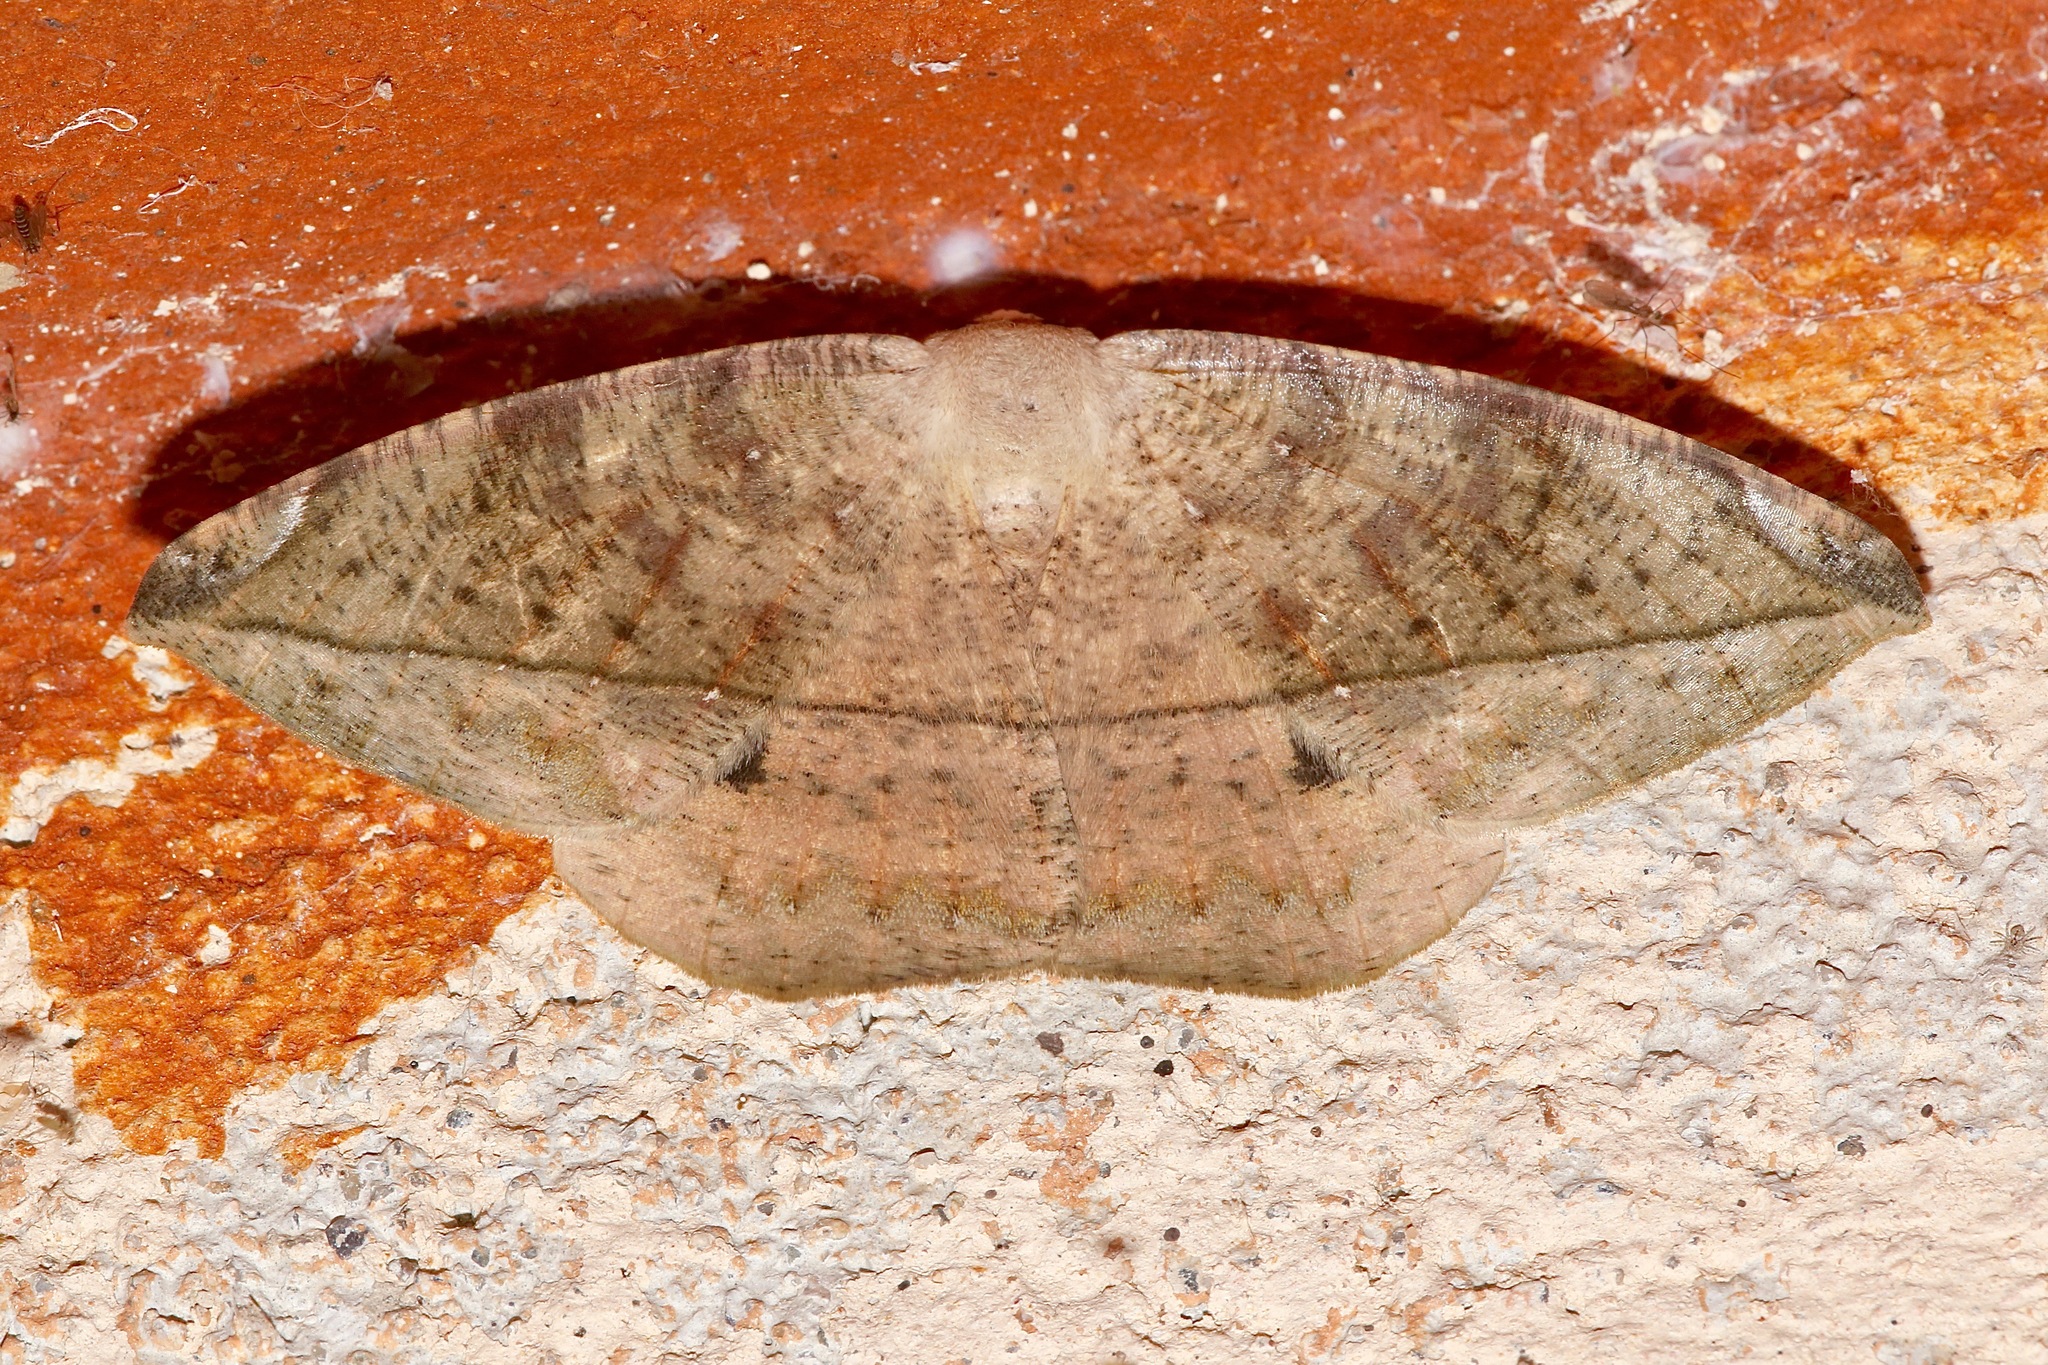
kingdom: Animalia
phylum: Arthropoda
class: Insecta
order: Lepidoptera
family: Geometridae
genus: Oxydia
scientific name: Oxydia vesulia
